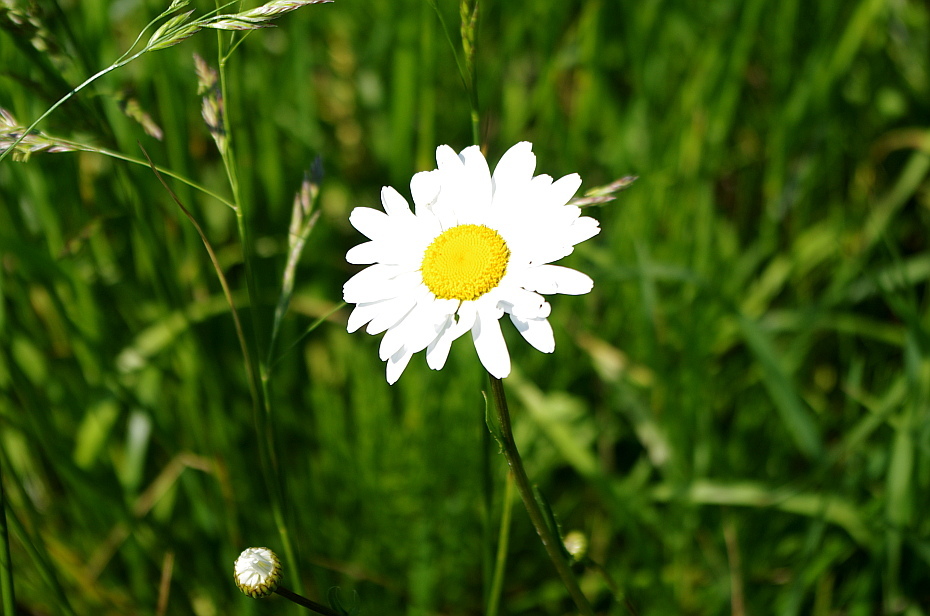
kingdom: Plantae
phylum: Tracheophyta
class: Magnoliopsida
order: Asterales
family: Asteraceae
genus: Leucanthemum
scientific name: Leucanthemum vulgare
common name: Oxeye daisy
